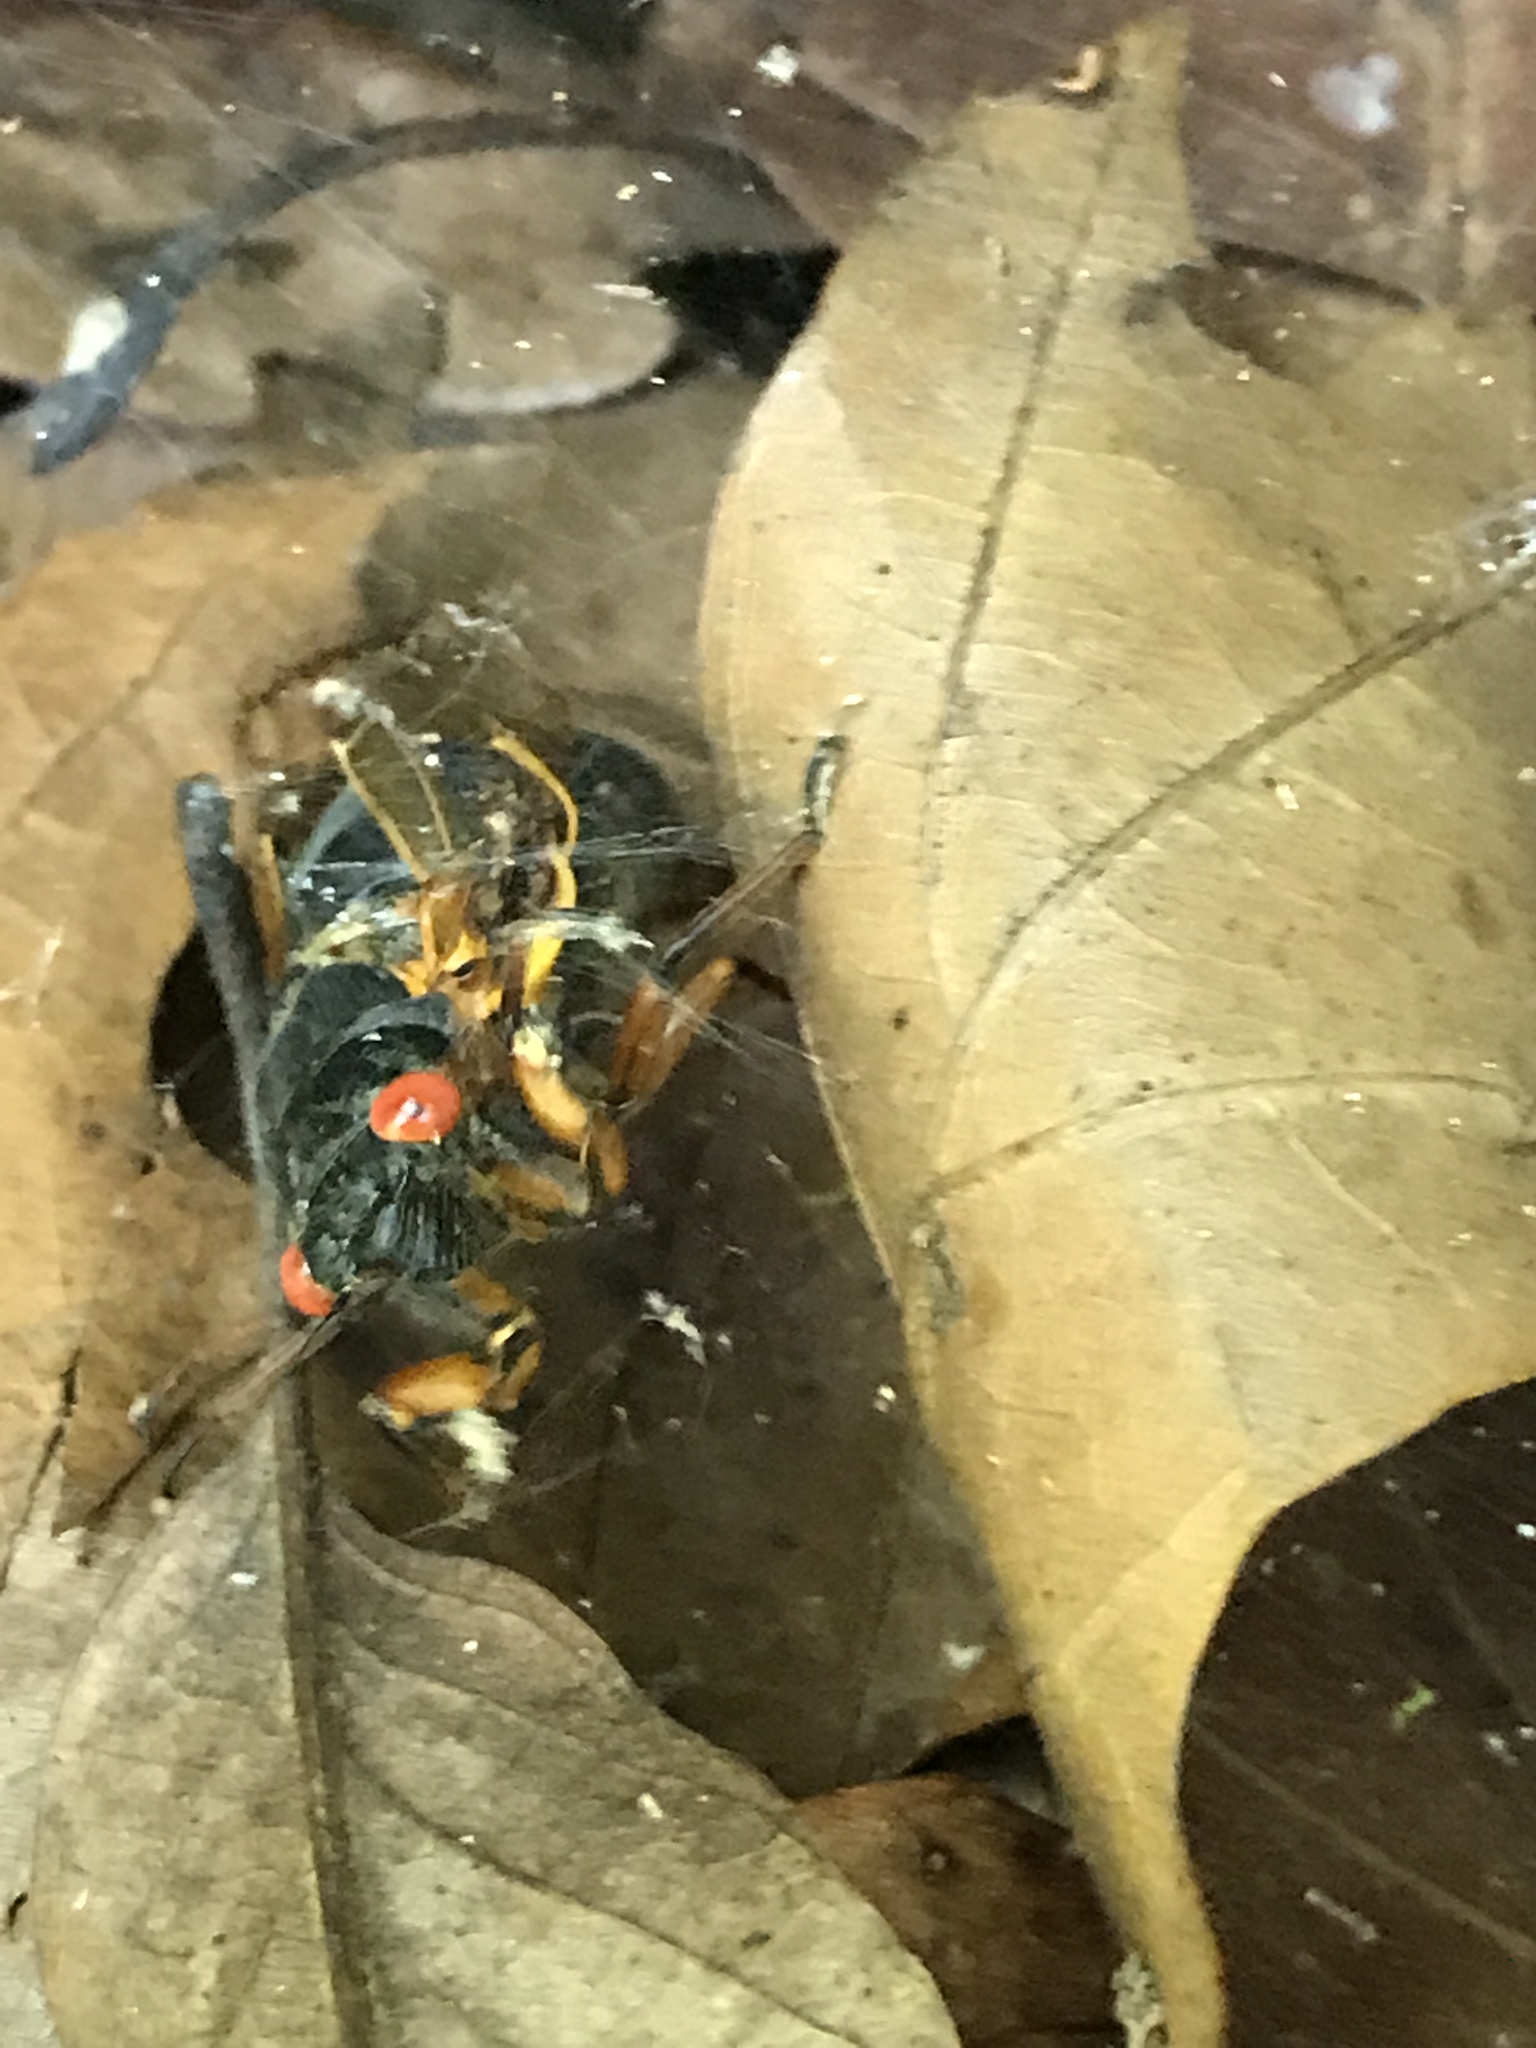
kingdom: Animalia
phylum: Arthropoda
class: Insecta
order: Hemiptera
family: Cicadidae
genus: Magicicada
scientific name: Magicicada septendecim
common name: Periodical cicada
